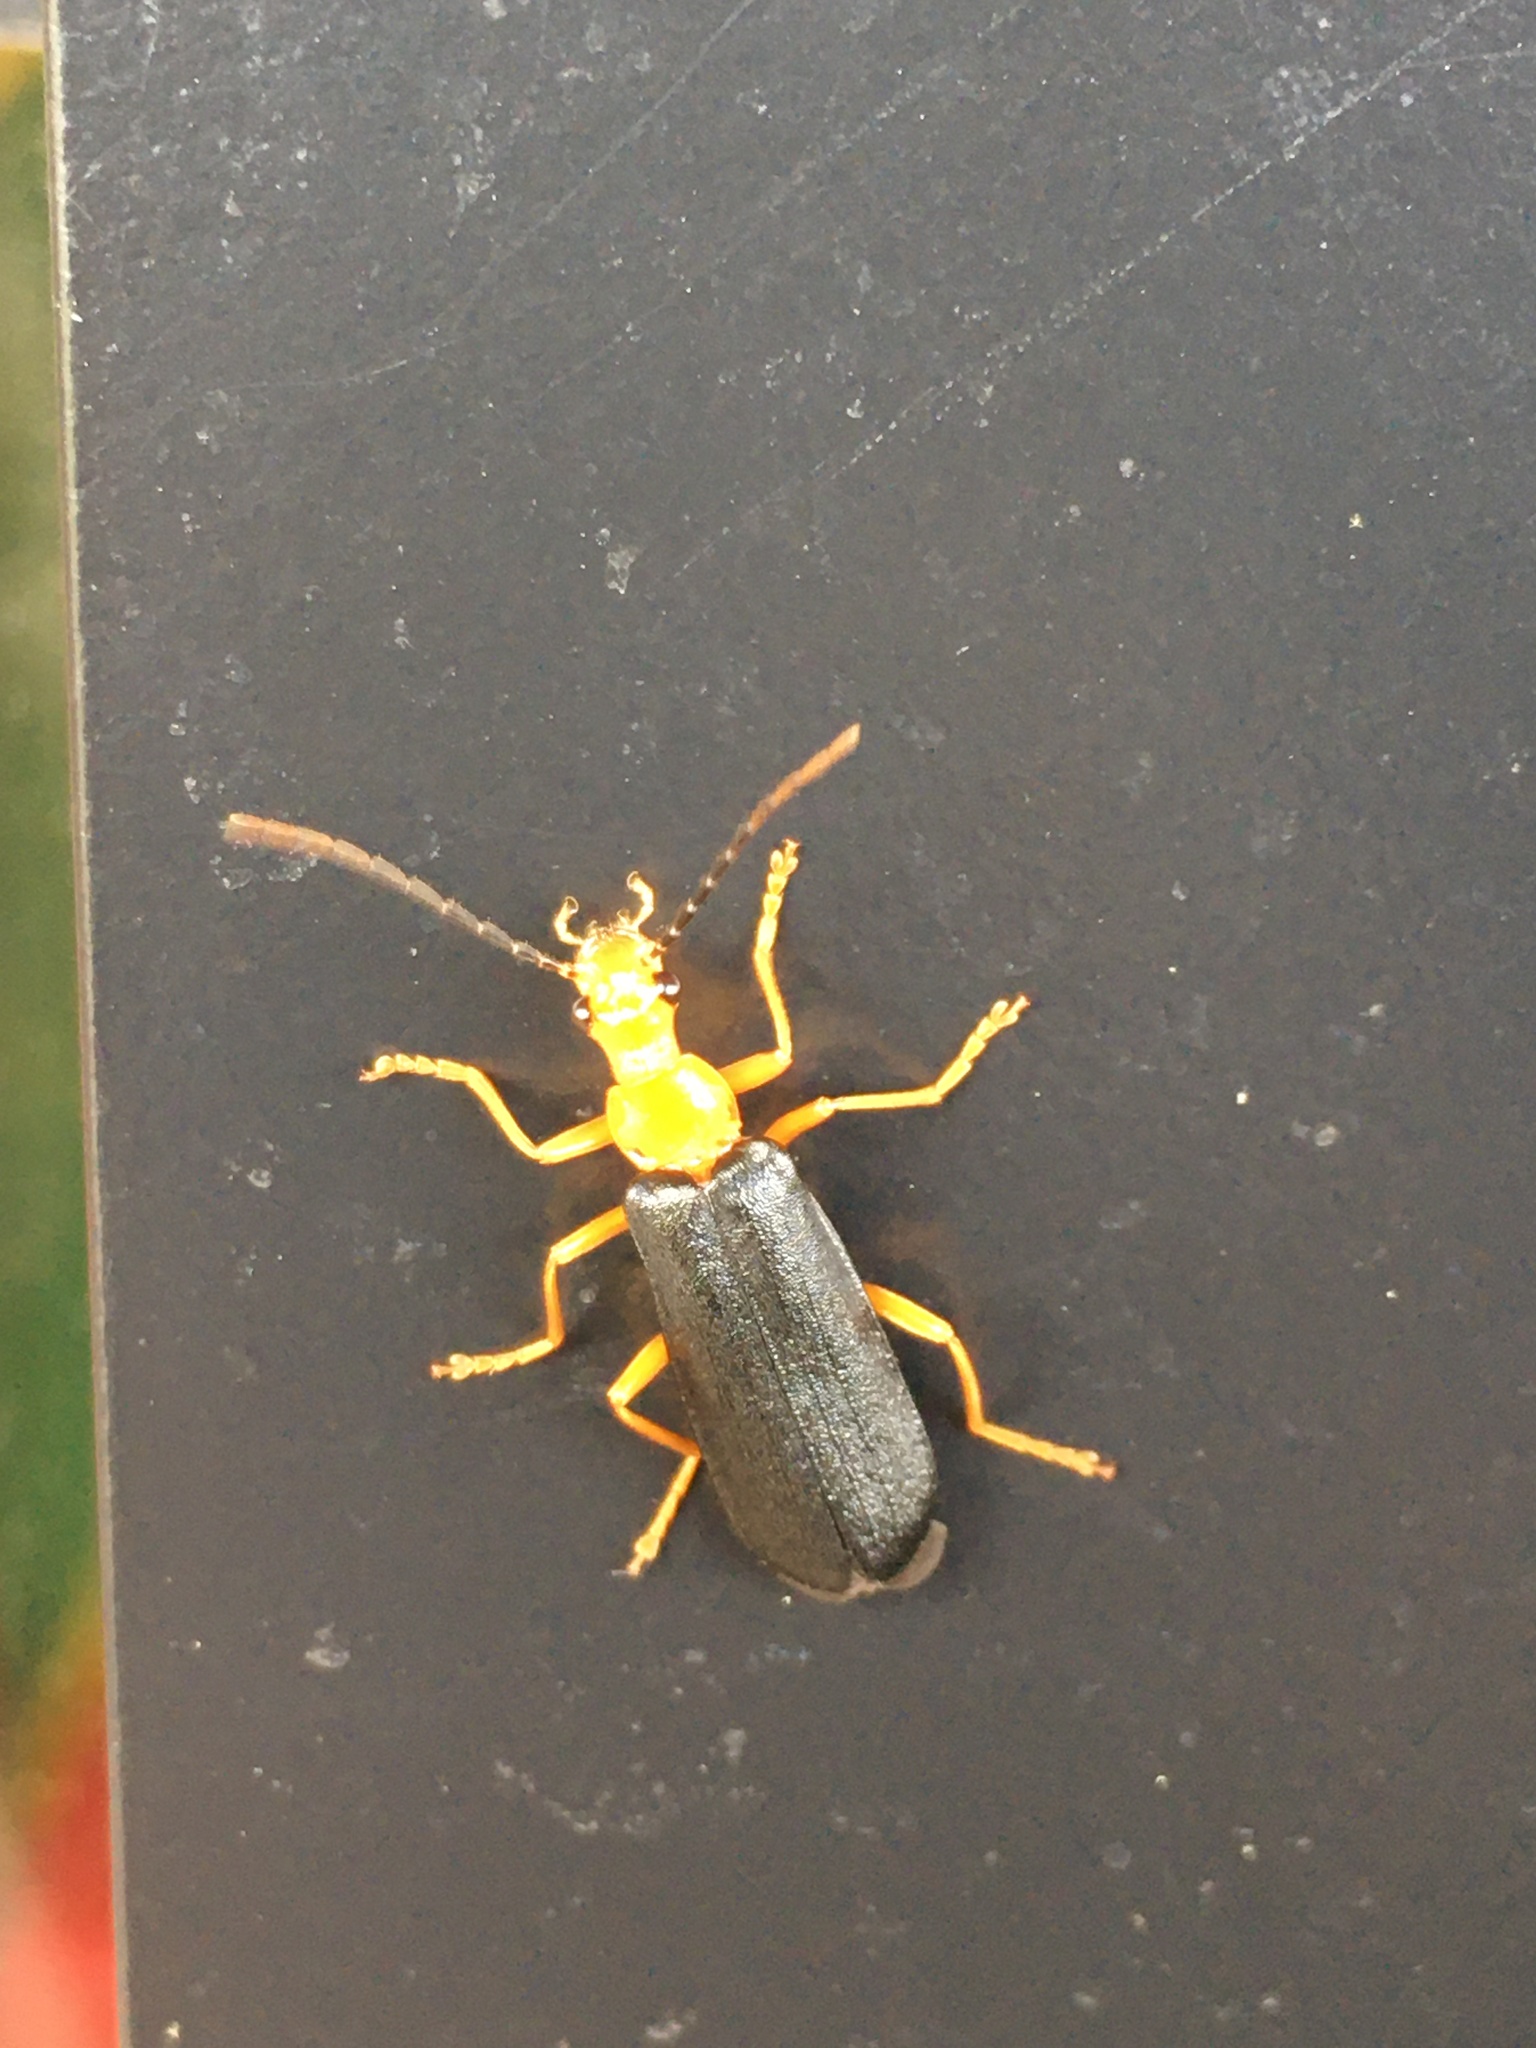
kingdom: Animalia
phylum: Arthropoda
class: Insecta
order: Coleoptera
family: Cantharidae
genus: Podabrus
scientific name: Podabrus fayi
